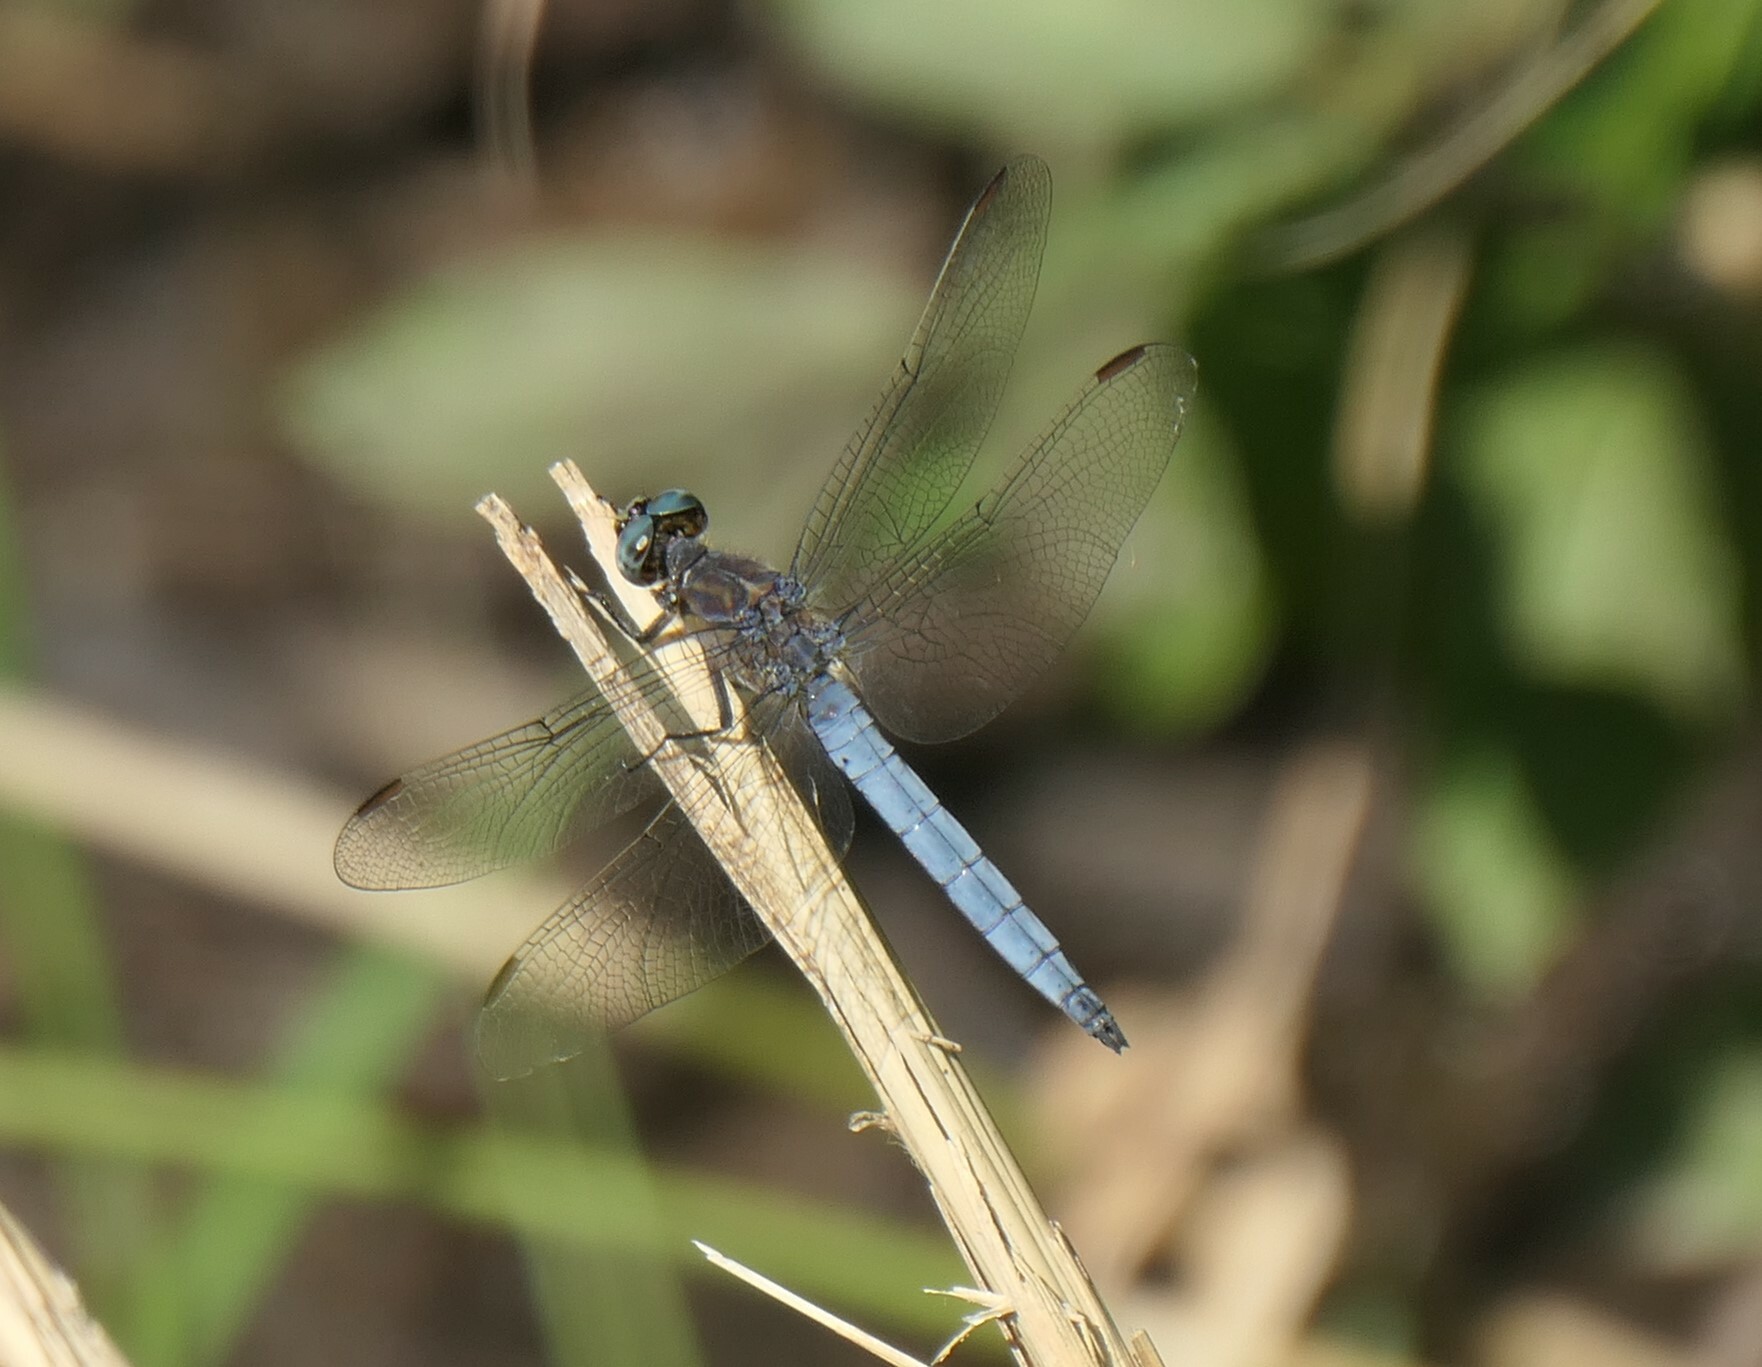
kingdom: Animalia
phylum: Arthropoda
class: Insecta
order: Odonata
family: Libellulidae
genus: Orthetrum
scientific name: Orthetrum coerulescens
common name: Keeled skimmer
